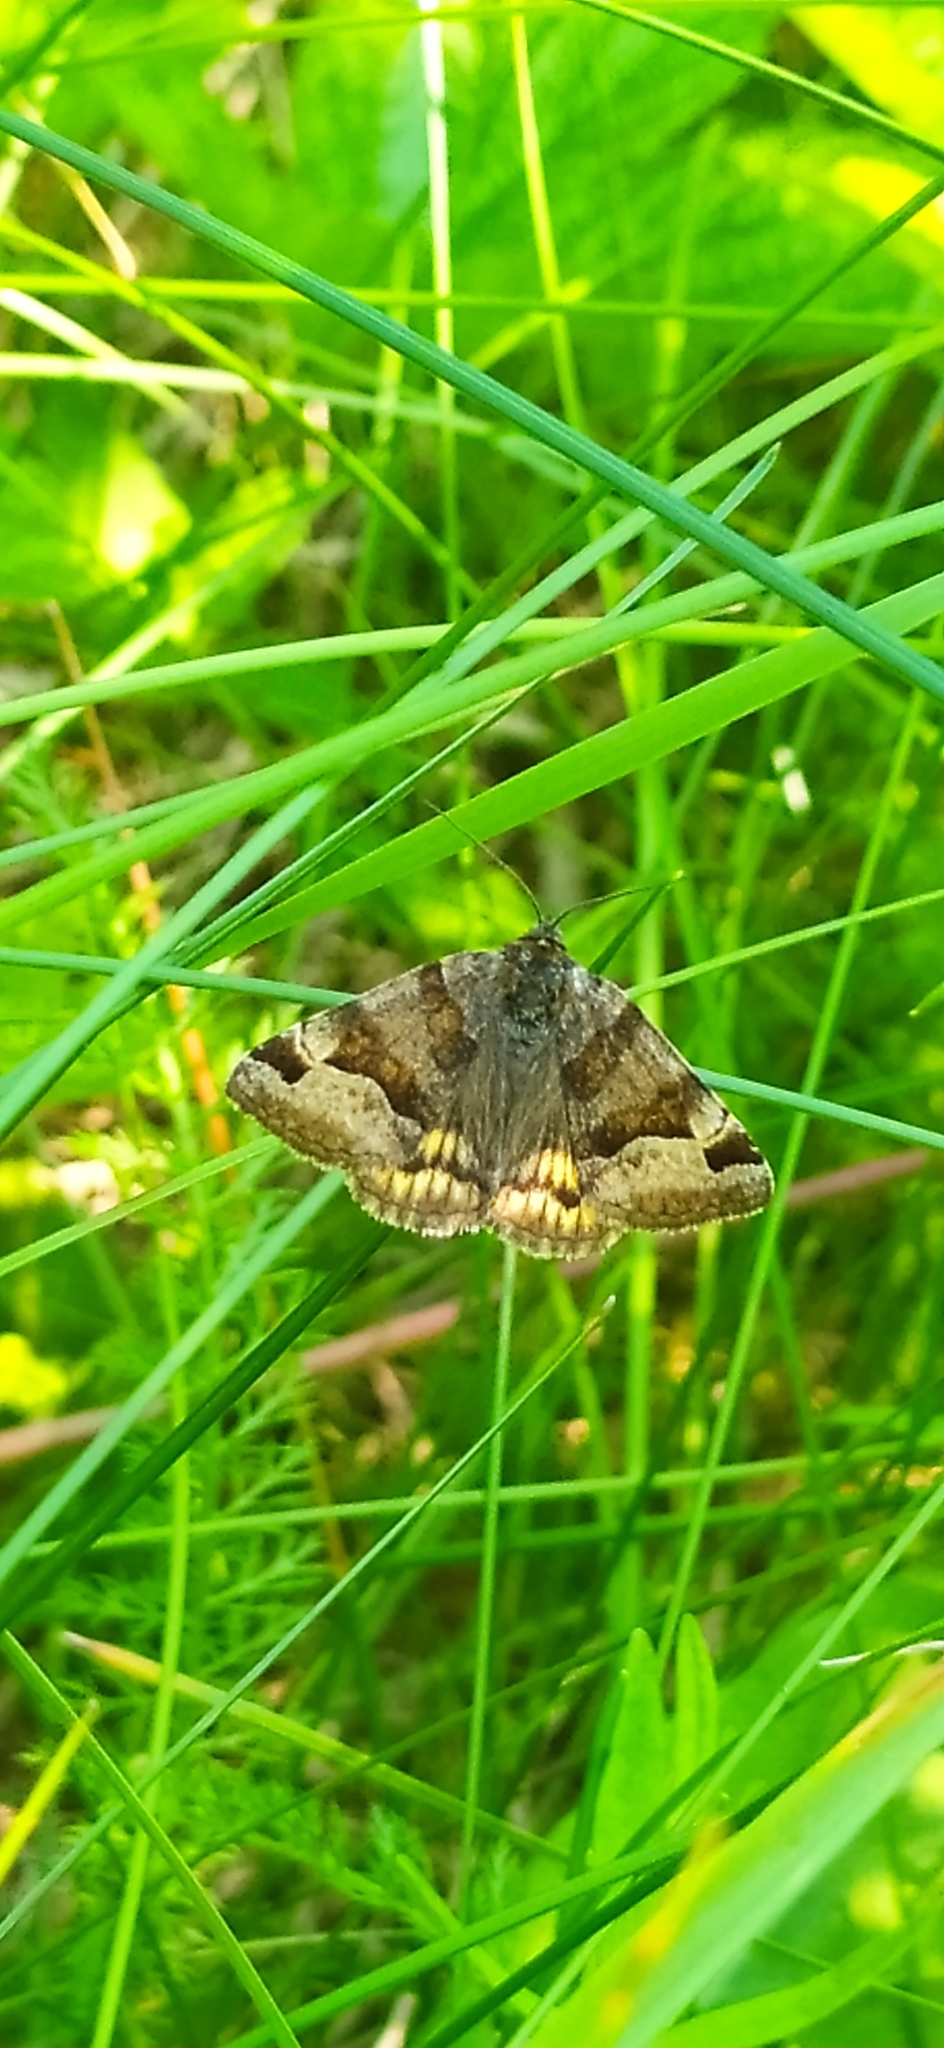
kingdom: Animalia
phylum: Arthropoda
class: Insecta
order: Lepidoptera
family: Erebidae
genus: Euclidia
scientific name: Euclidia glyphica
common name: Burnet companion
